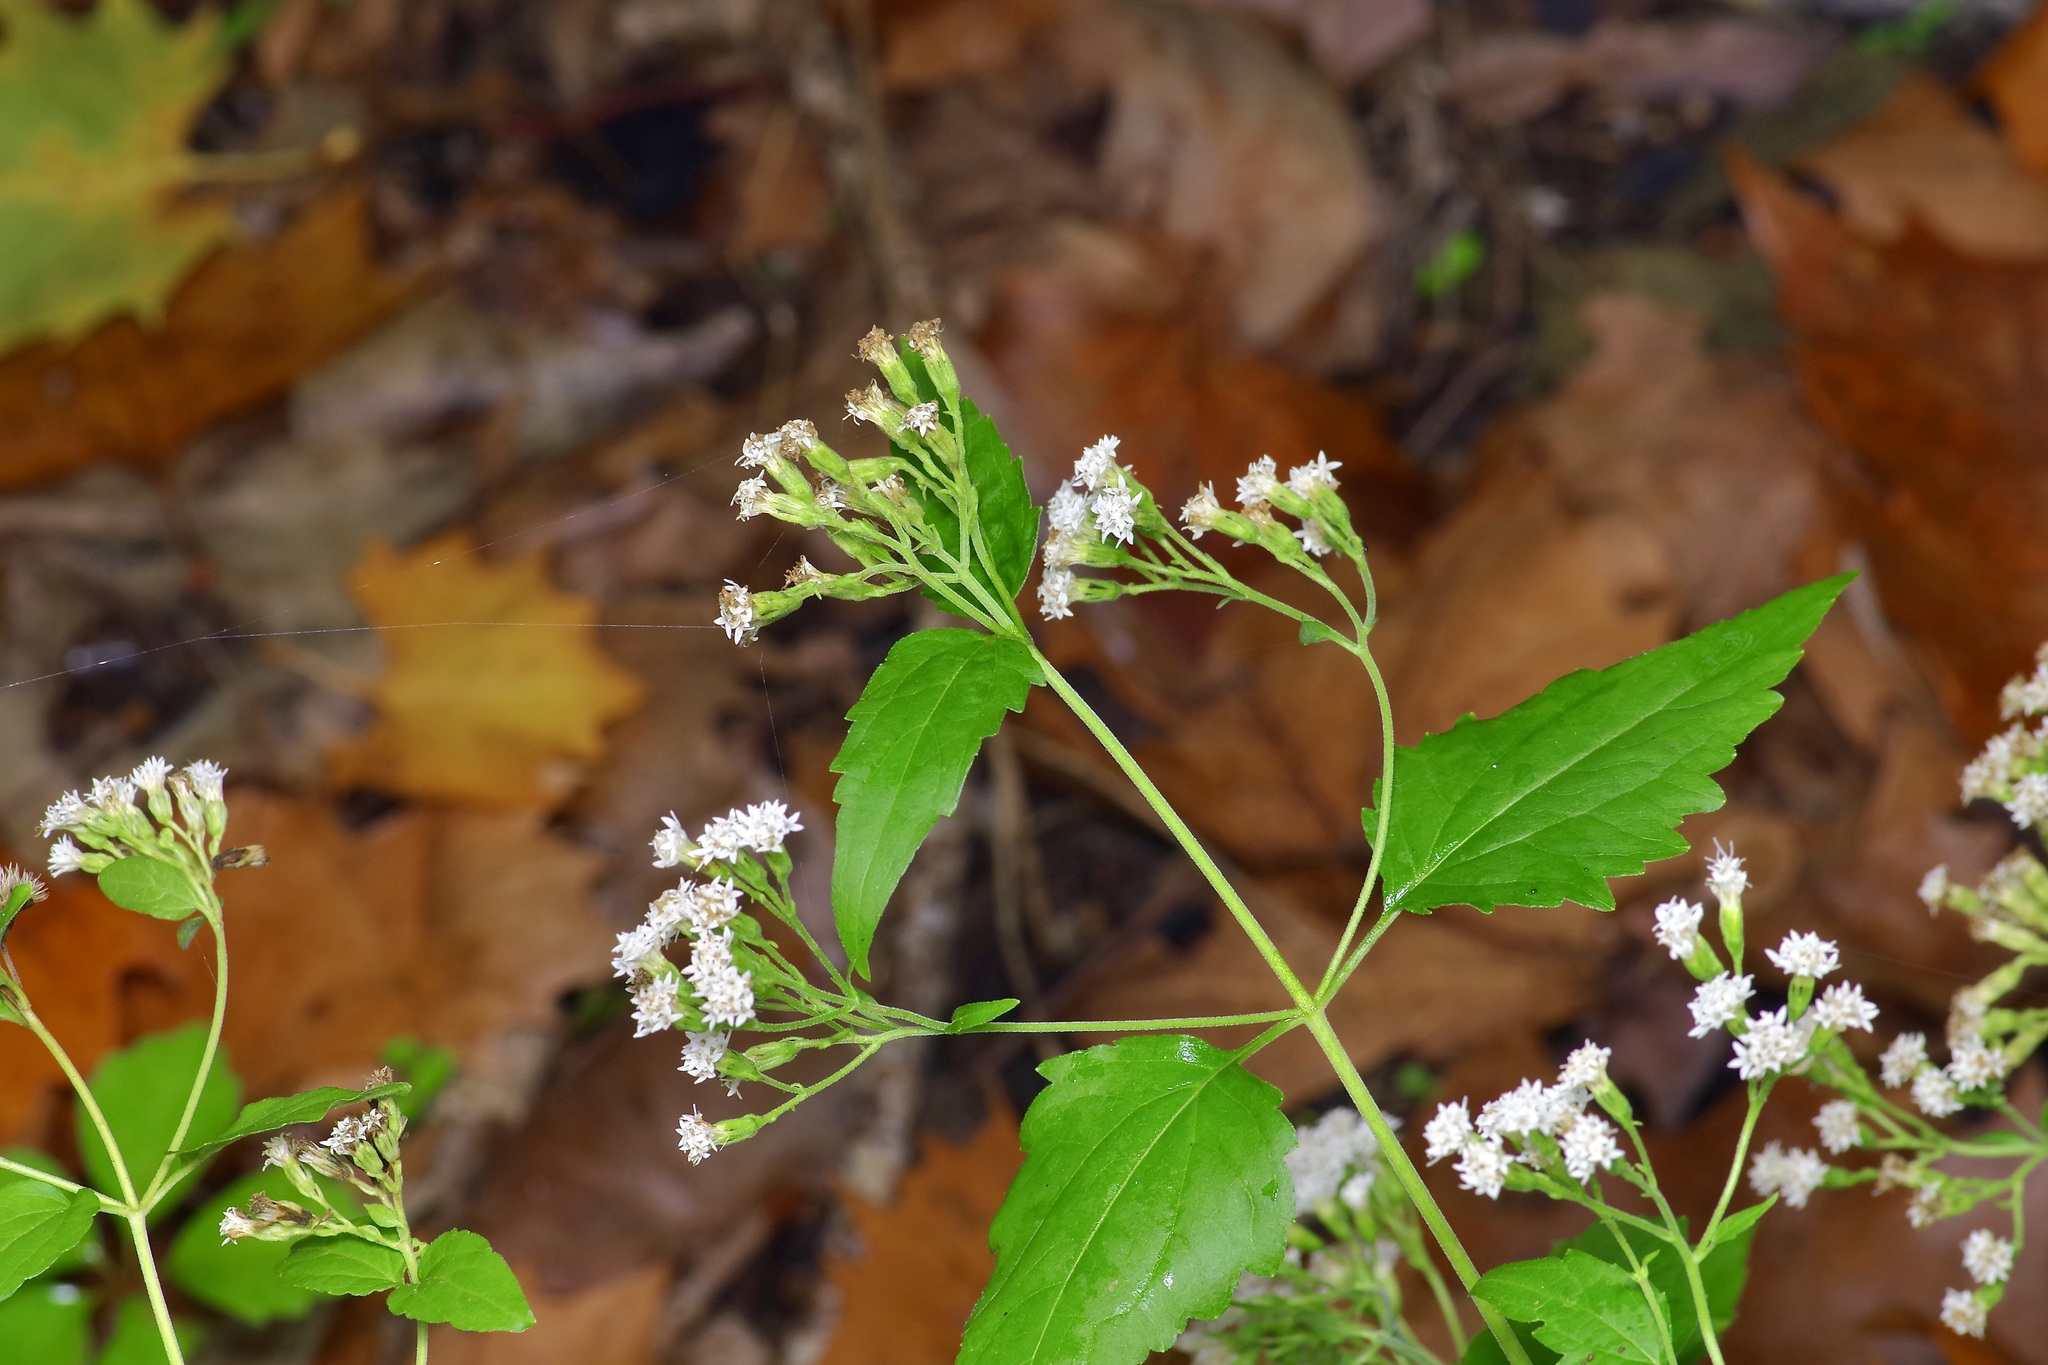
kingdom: Plantae
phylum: Tracheophyta
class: Magnoliopsida
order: Asterales
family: Asteraceae
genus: Ageratina
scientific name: Ageratina havanensis
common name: Havana snakeroot
